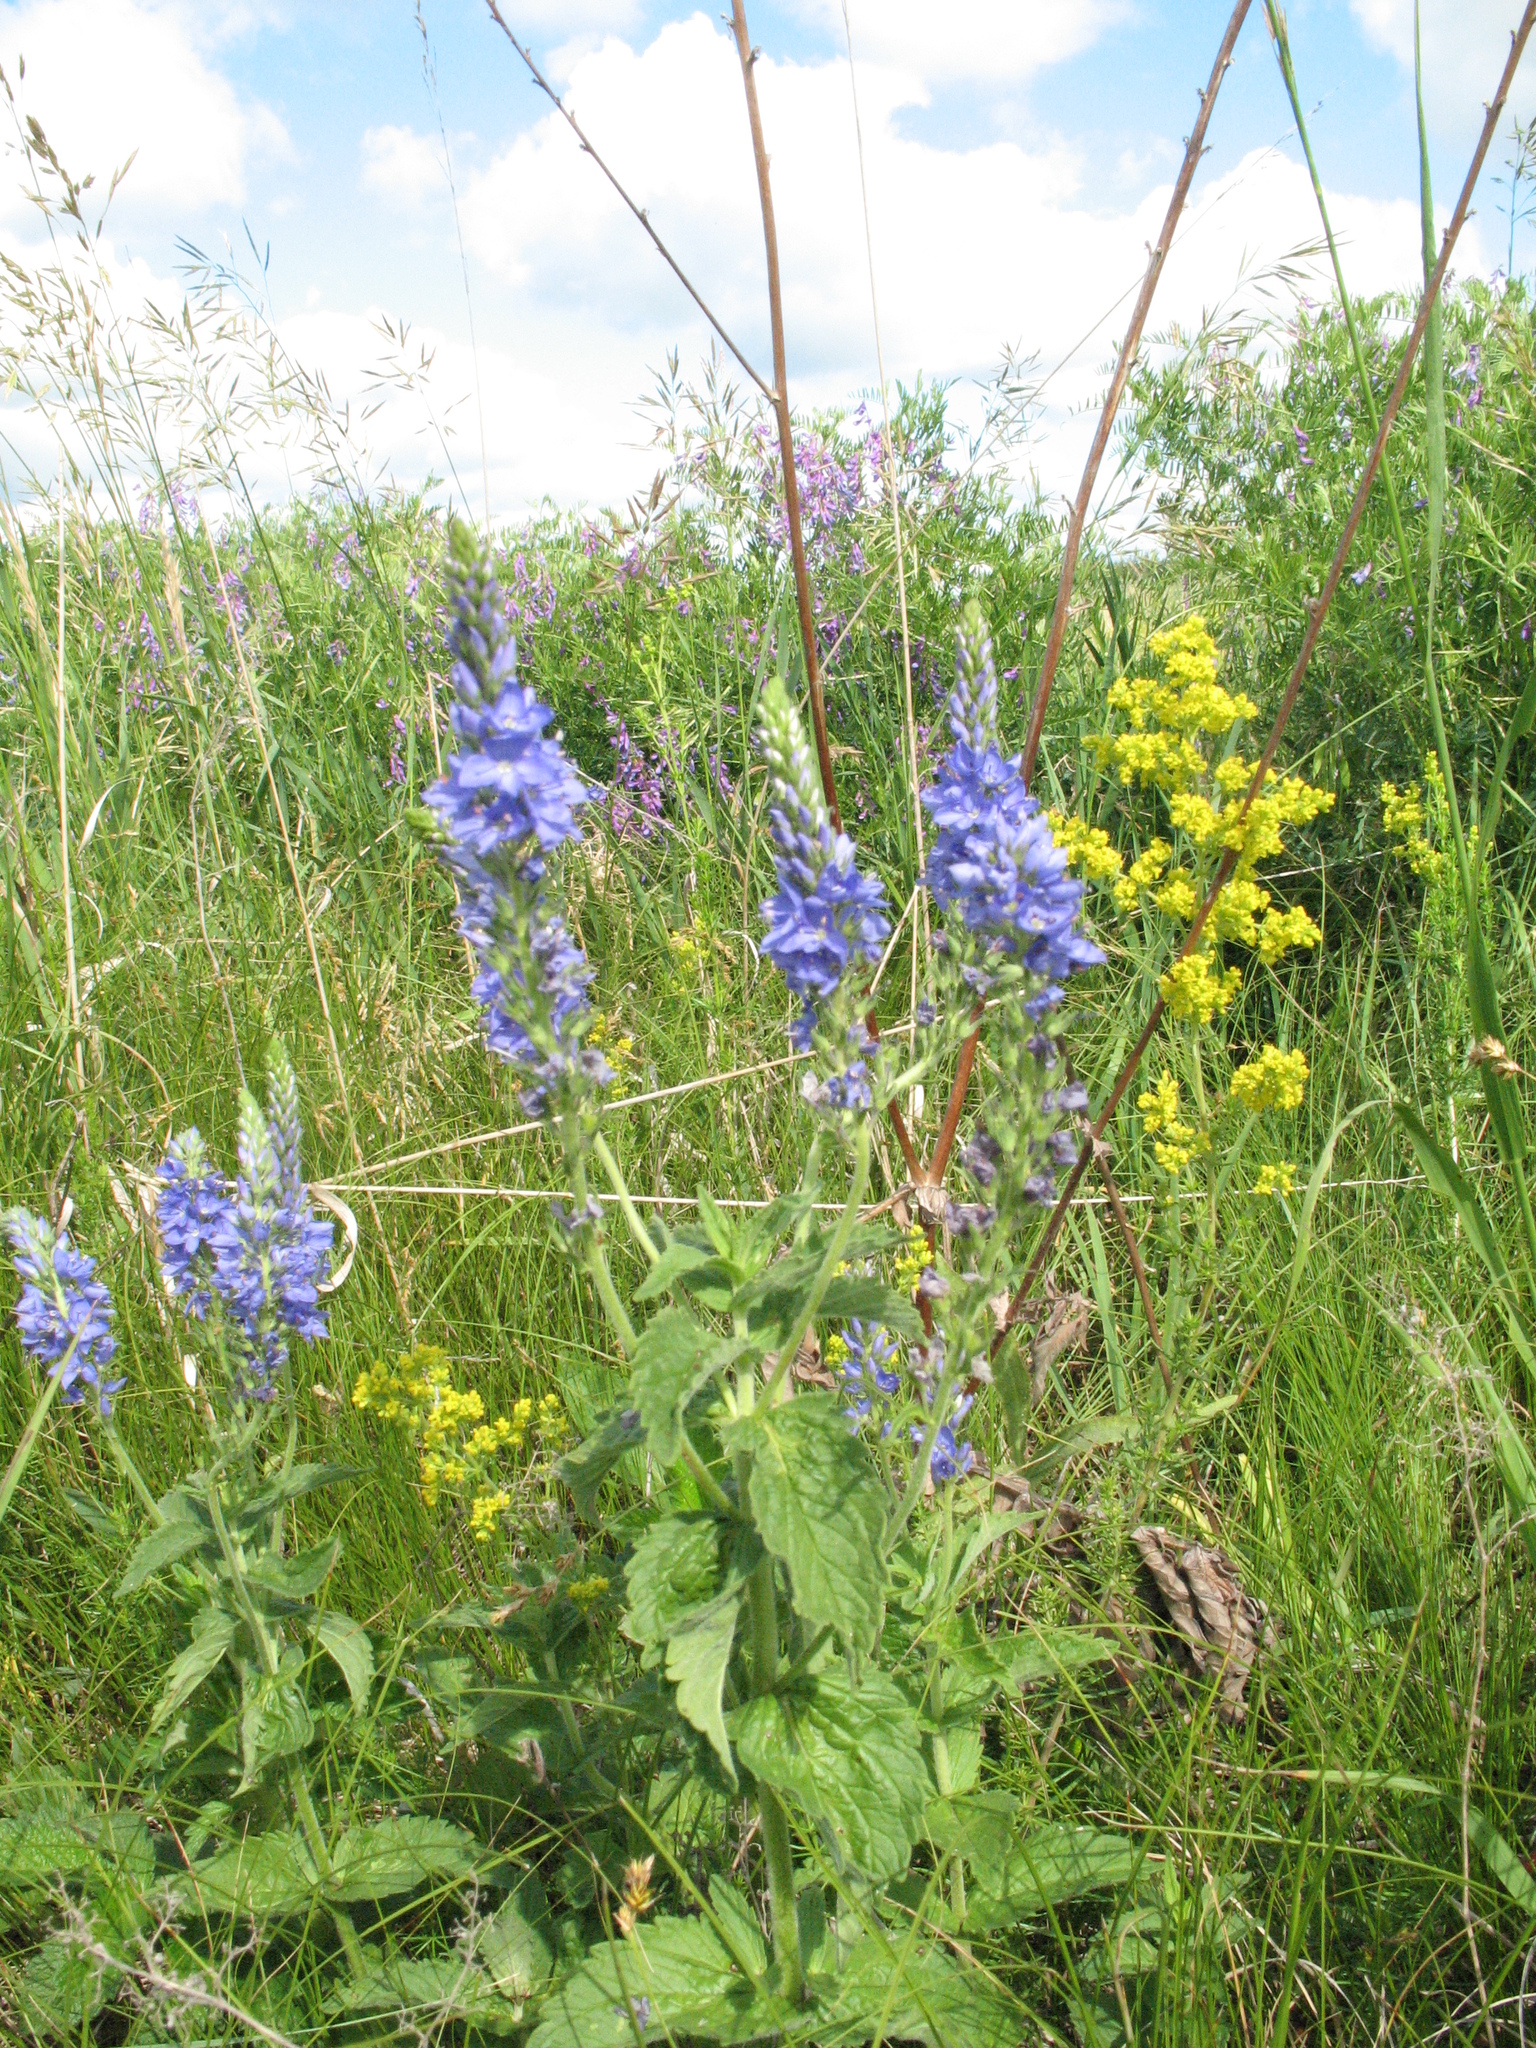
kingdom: Plantae
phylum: Tracheophyta
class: Magnoliopsida
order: Lamiales
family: Plantaginaceae
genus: Veronica
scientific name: Veronica teucrium
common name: Large speedwell
